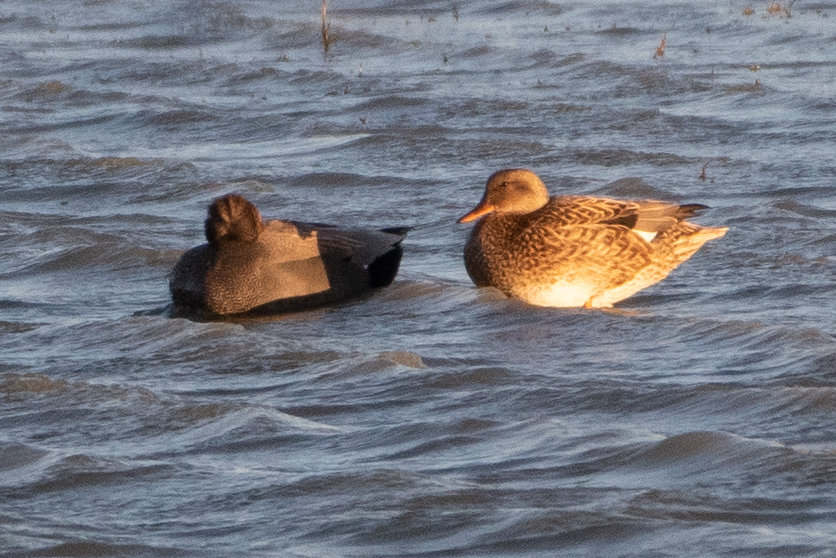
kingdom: Animalia
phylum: Chordata
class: Aves
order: Anseriformes
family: Anatidae
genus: Mareca
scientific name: Mareca strepera
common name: Gadwall
